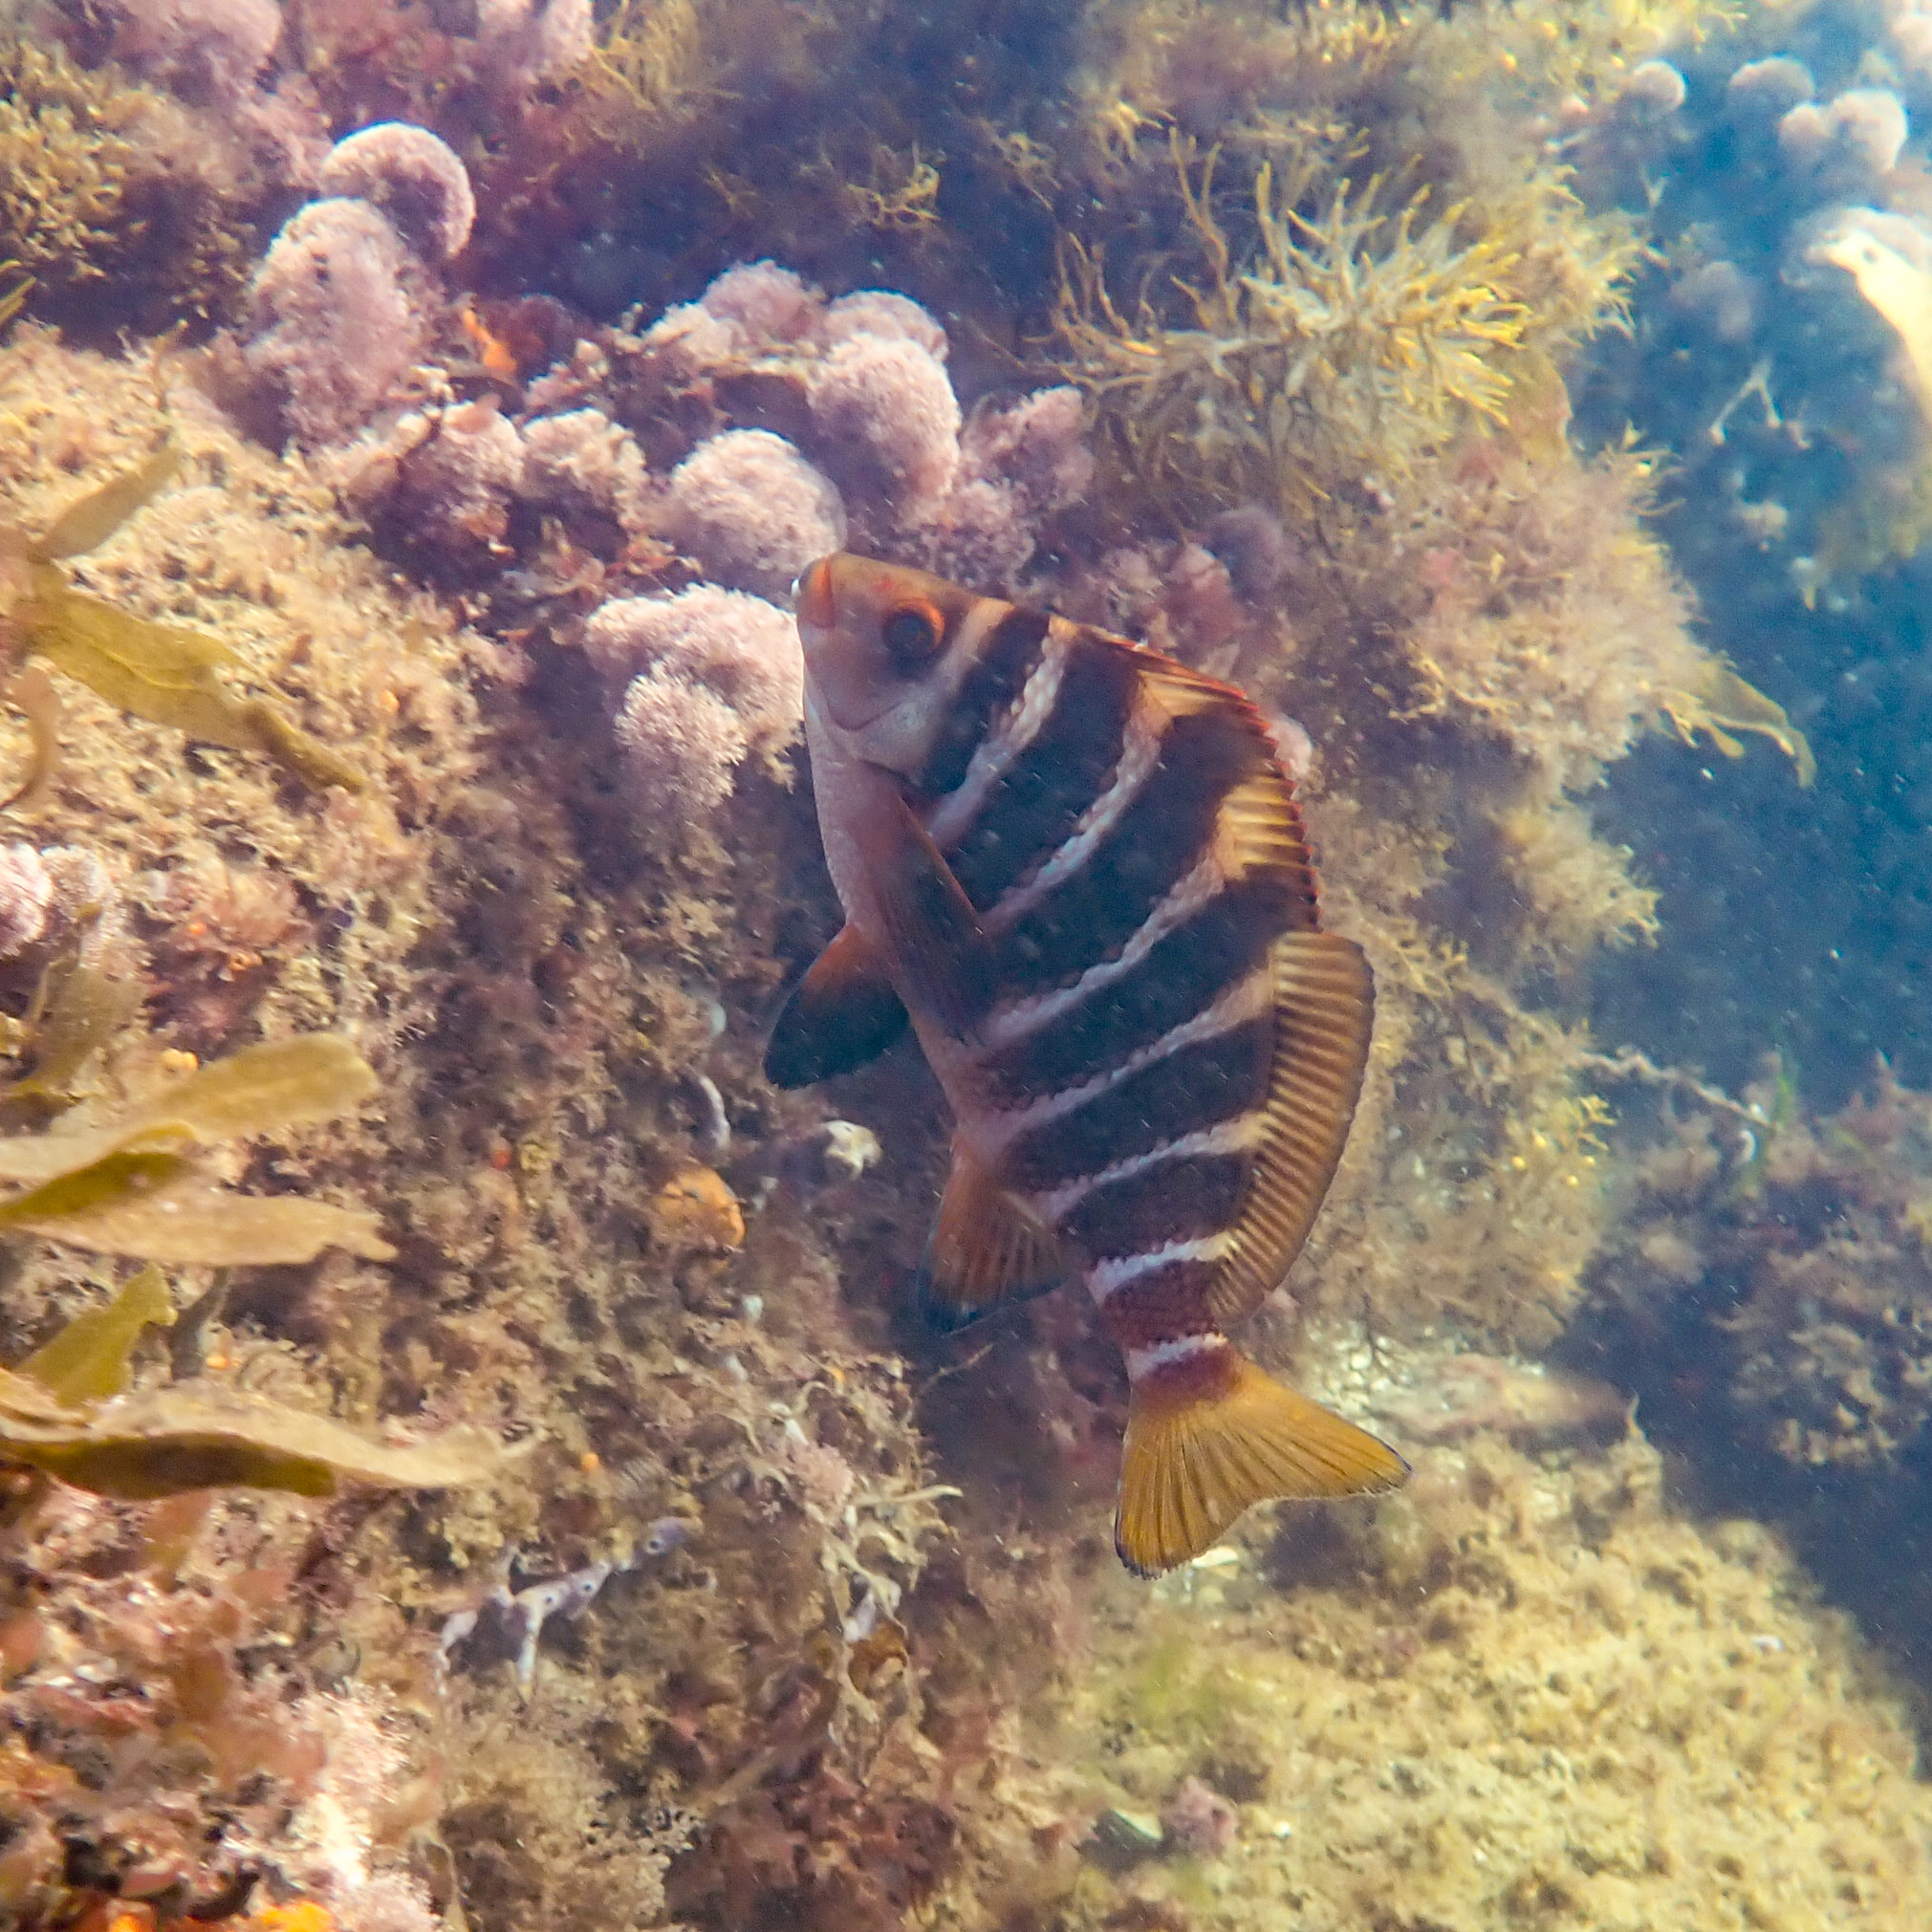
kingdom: Animalia
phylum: Chordata
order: Perciformes
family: Cheilodactylidae
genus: Cheilodactylus
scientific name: Cheilodactylus spectabilis
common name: Red moki
